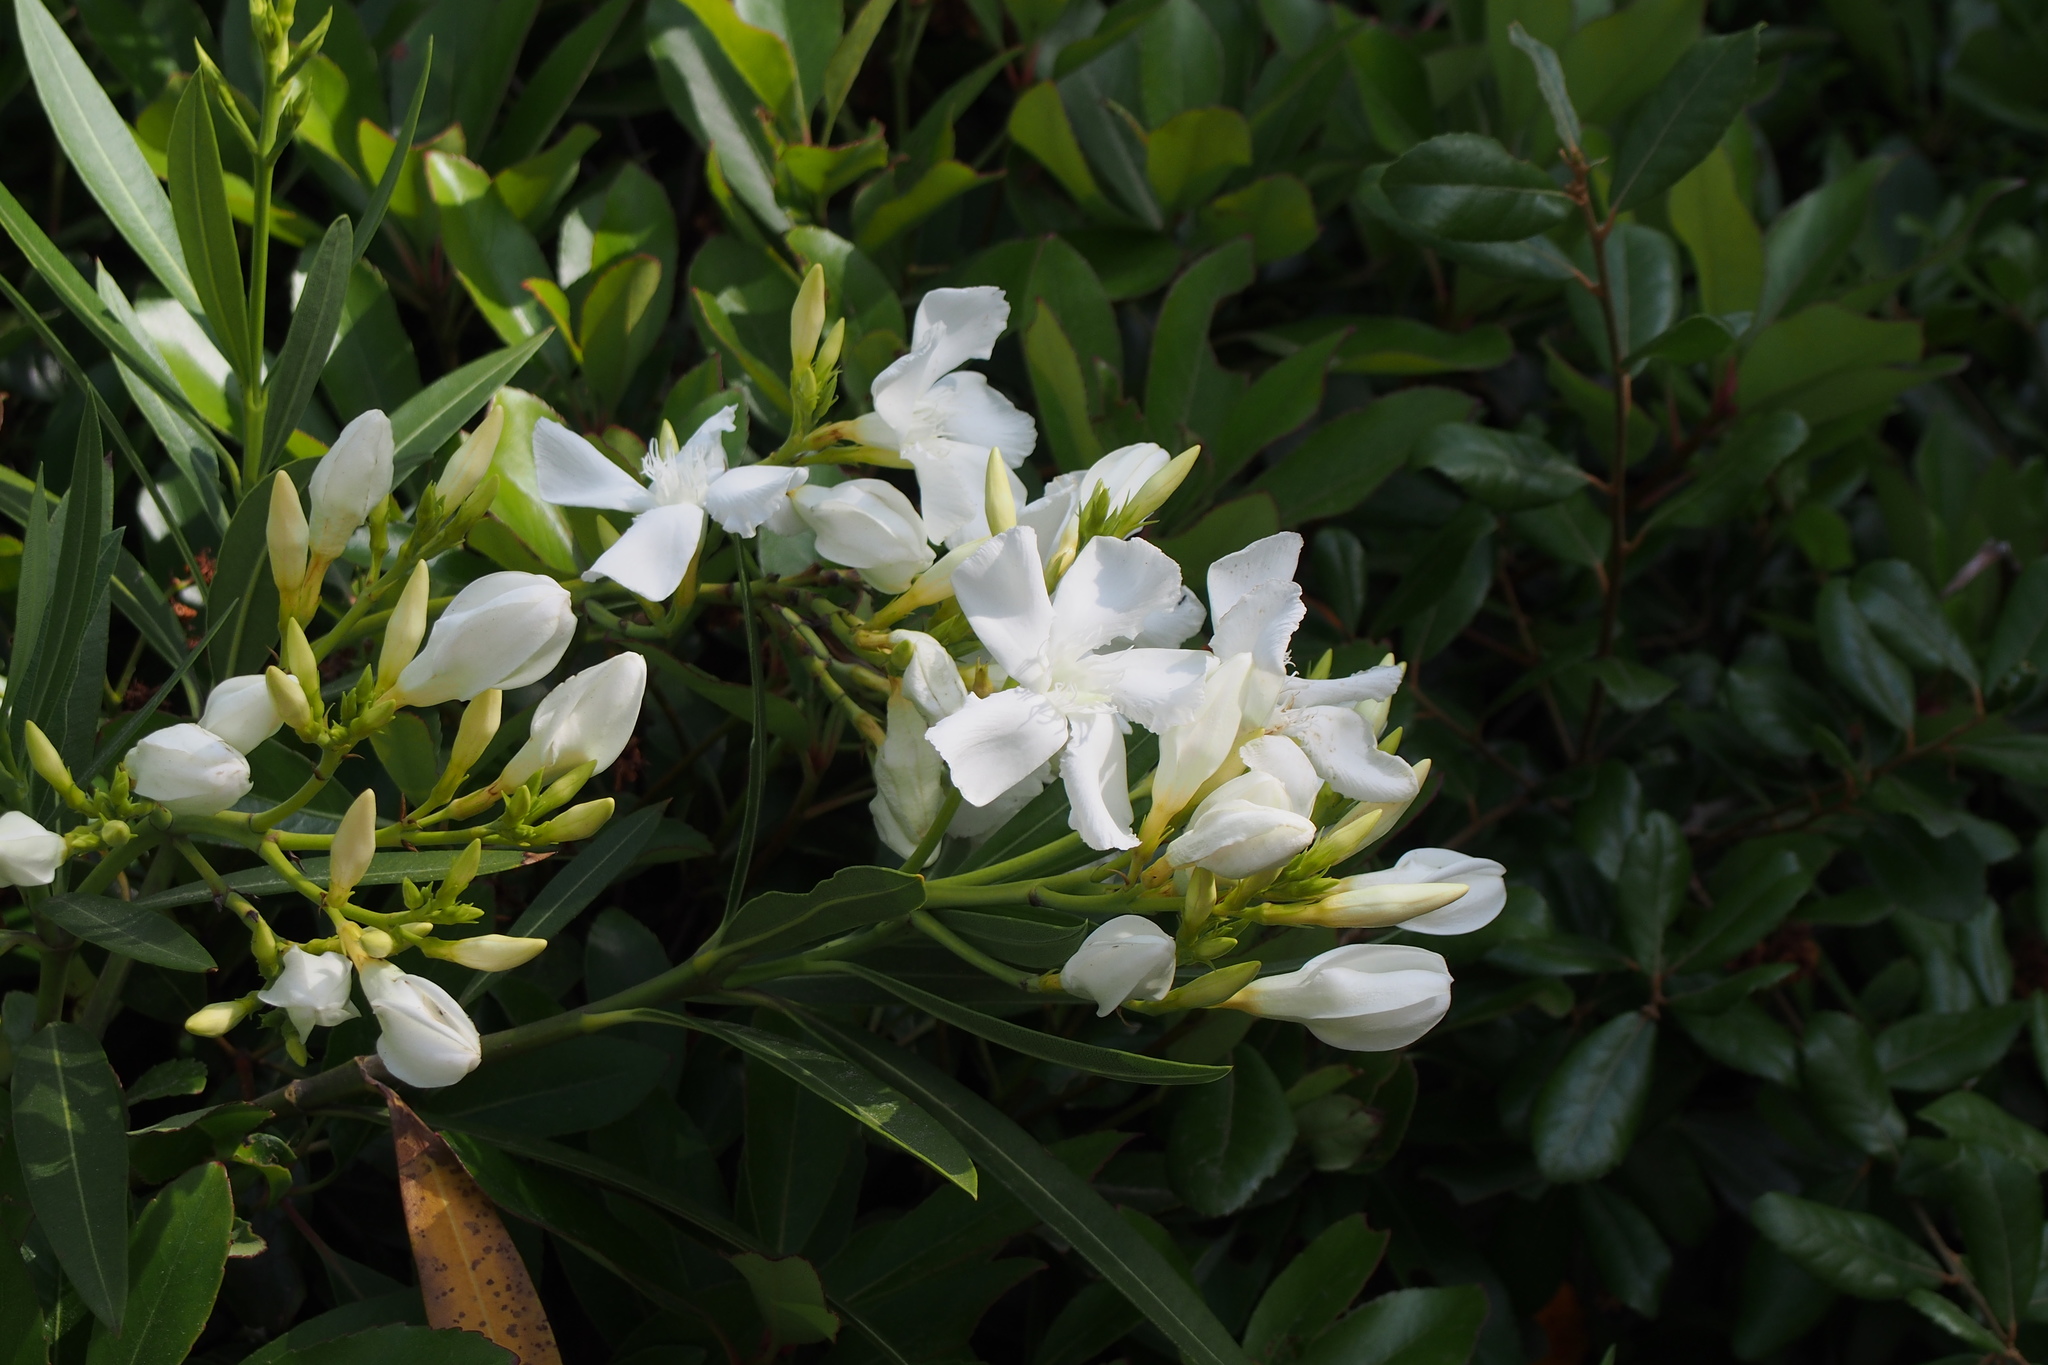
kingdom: Plantae
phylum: Tracheophyta
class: Magnoliopsida
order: Gentianales
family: Apocynaceae
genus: Nerium
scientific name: Nerium oleander
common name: Oleander
